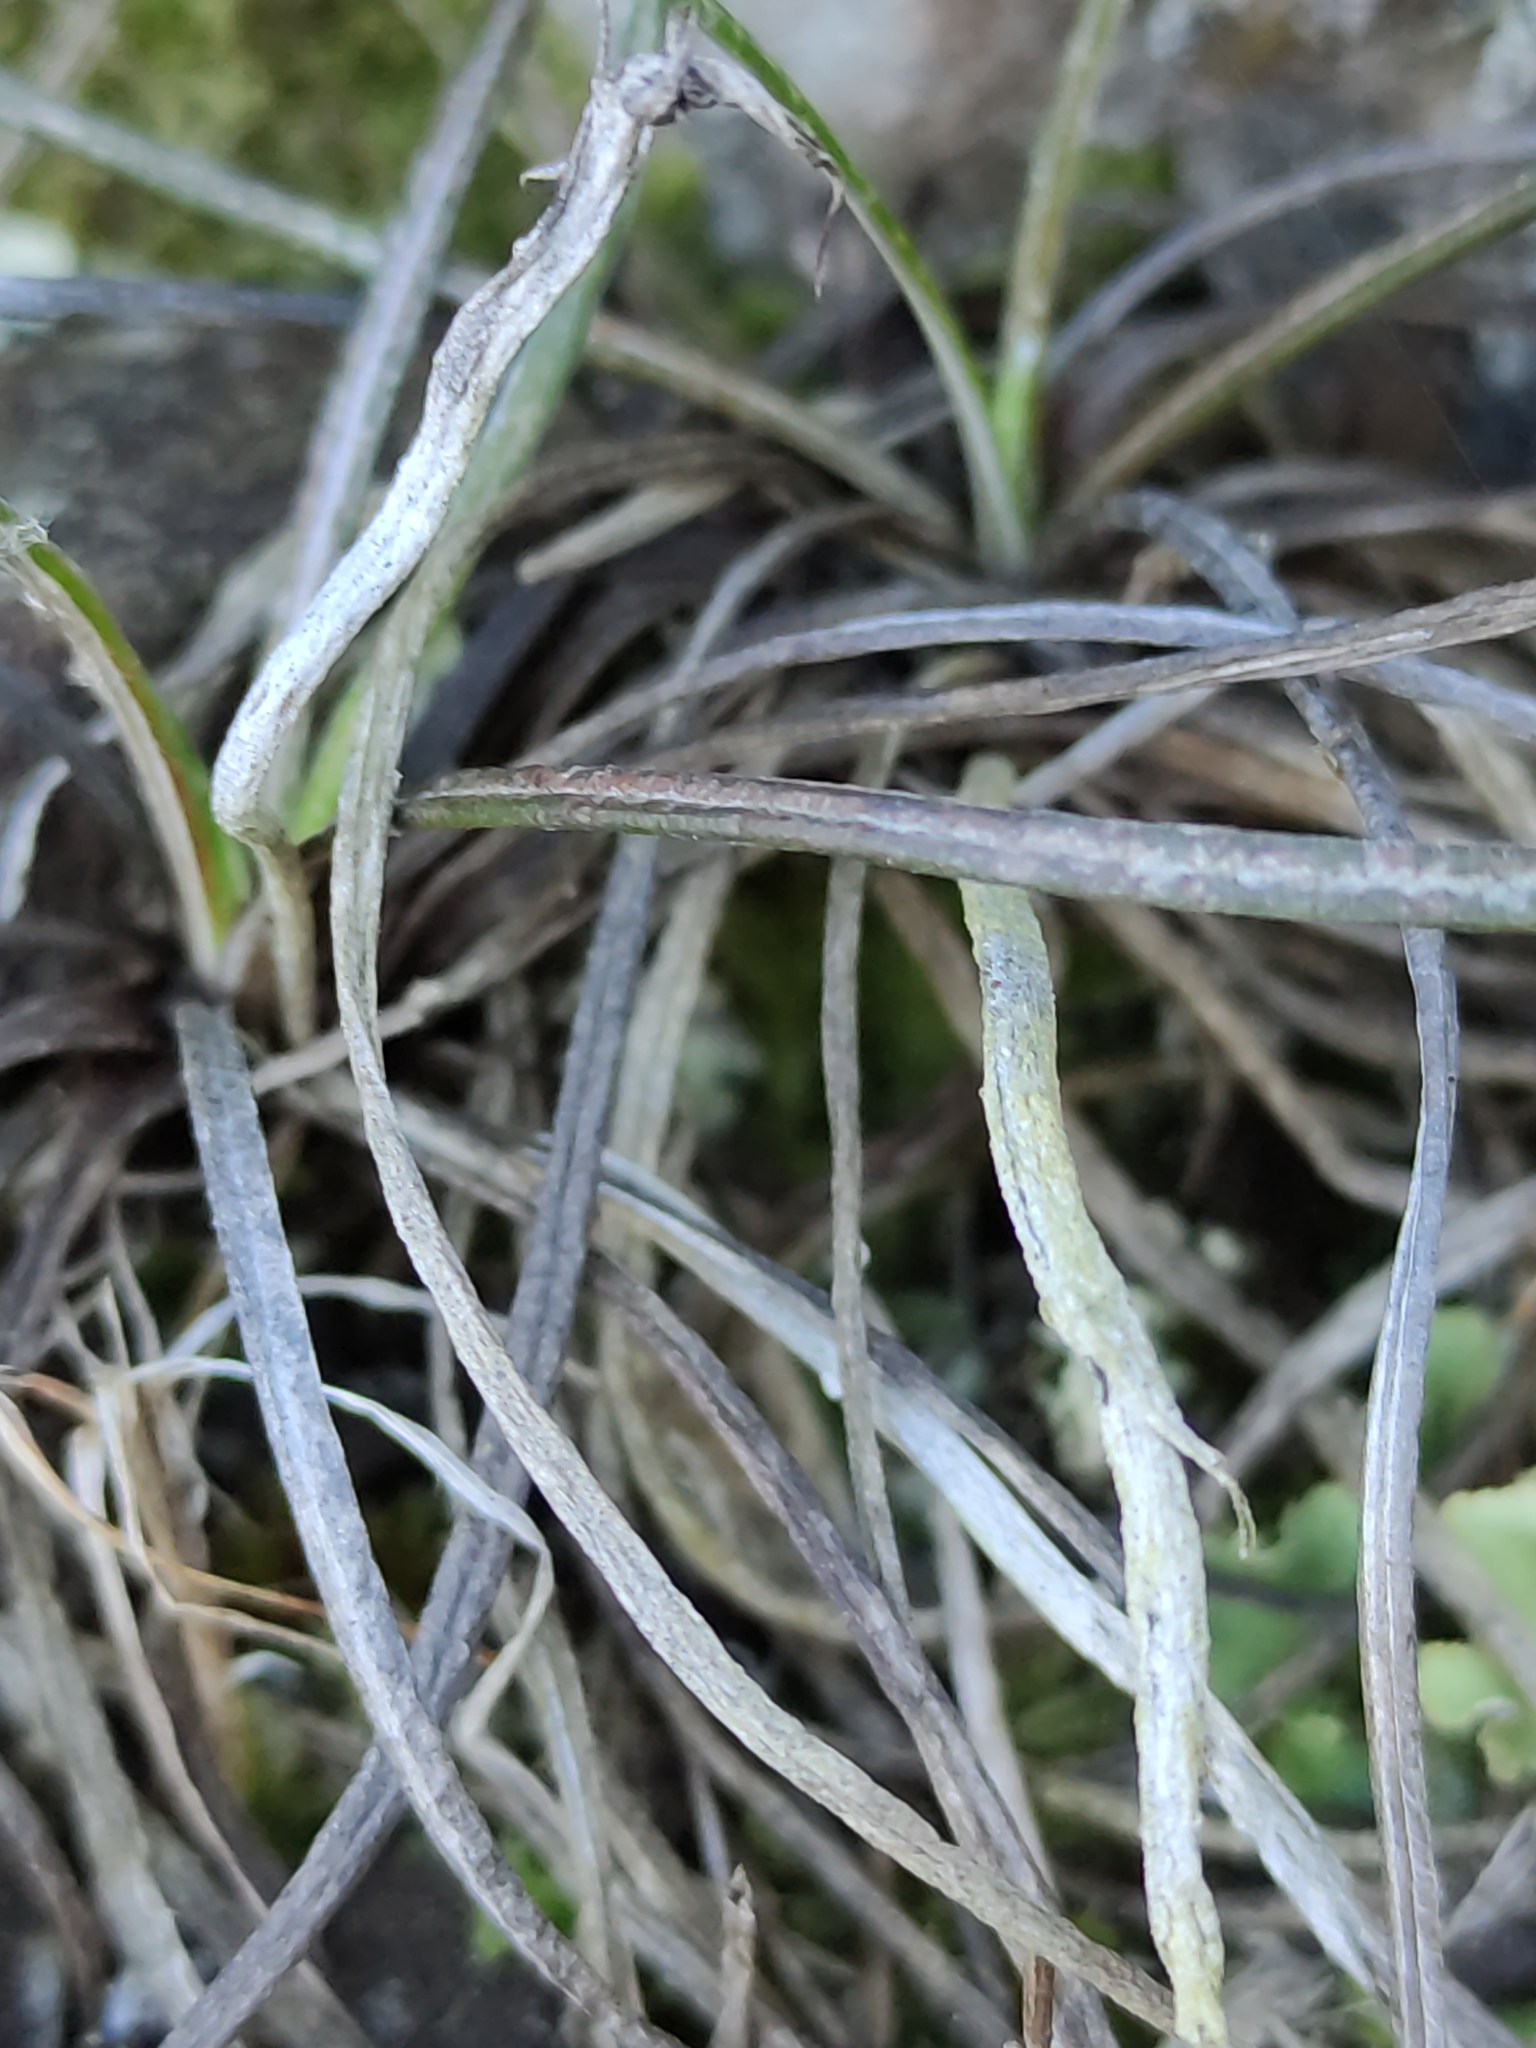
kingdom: Plantae
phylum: Tracheophyta
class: Magnoliopsida
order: Asterales
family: Asteraceae
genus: Celmisia
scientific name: Celmisia gracilenta
